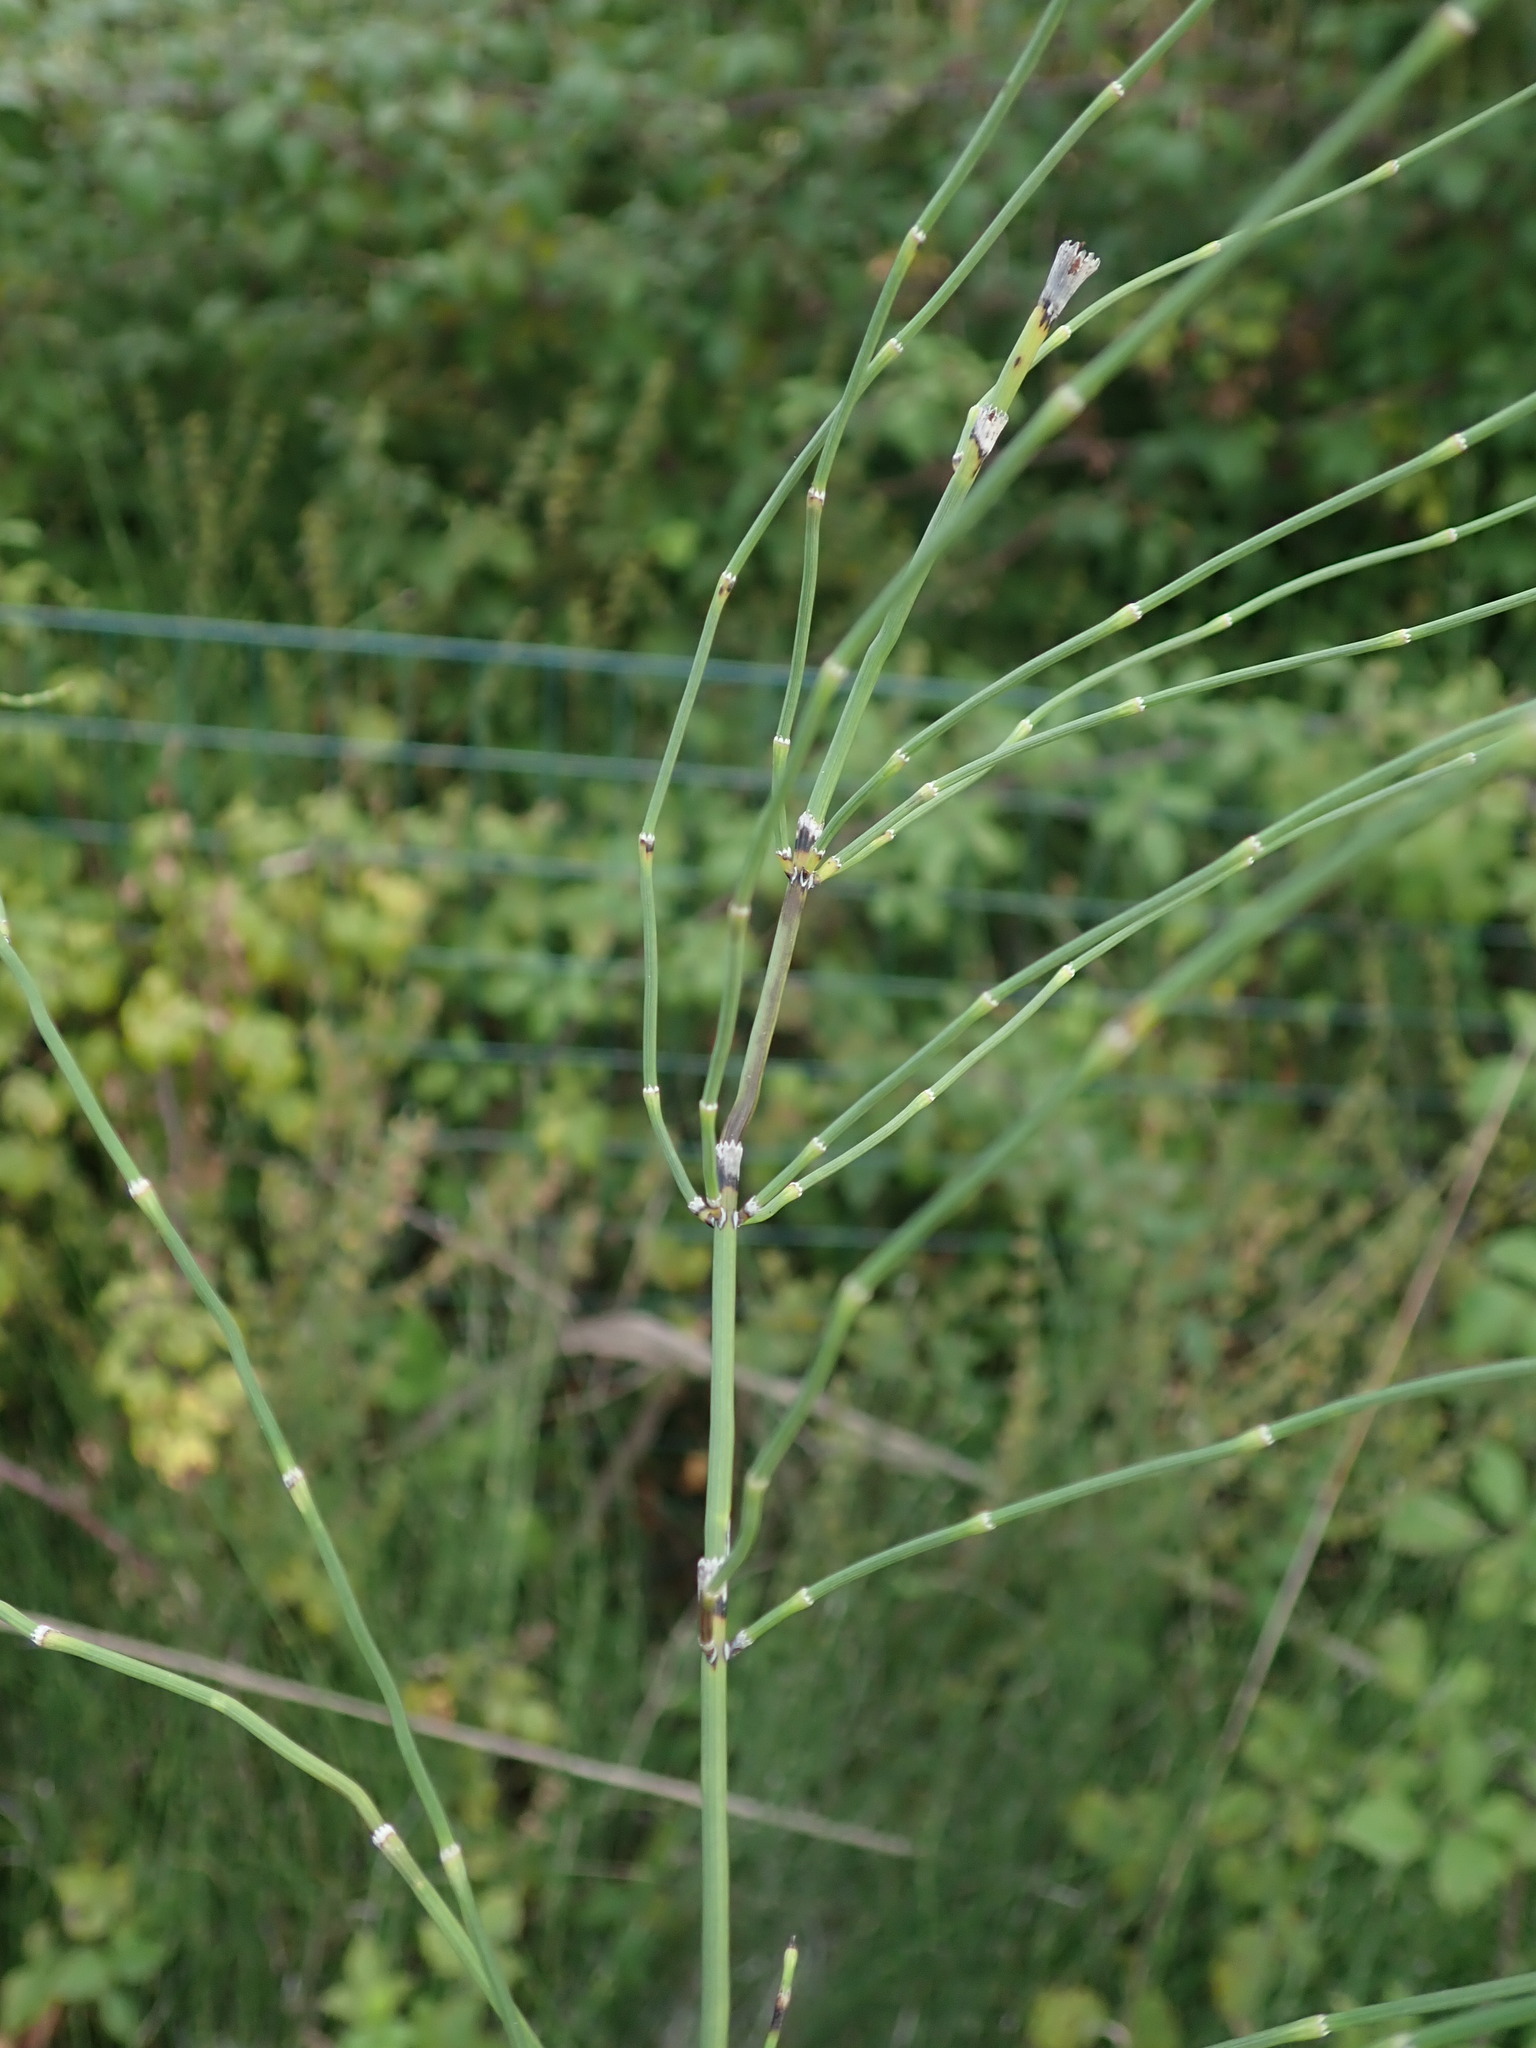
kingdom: Plantae
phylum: Tracheophyta
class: Polypodiopsida
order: Equisetales
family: Equisetaceae
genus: Equisetum
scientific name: Equisetum ramosissimum
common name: Branched horsetail
